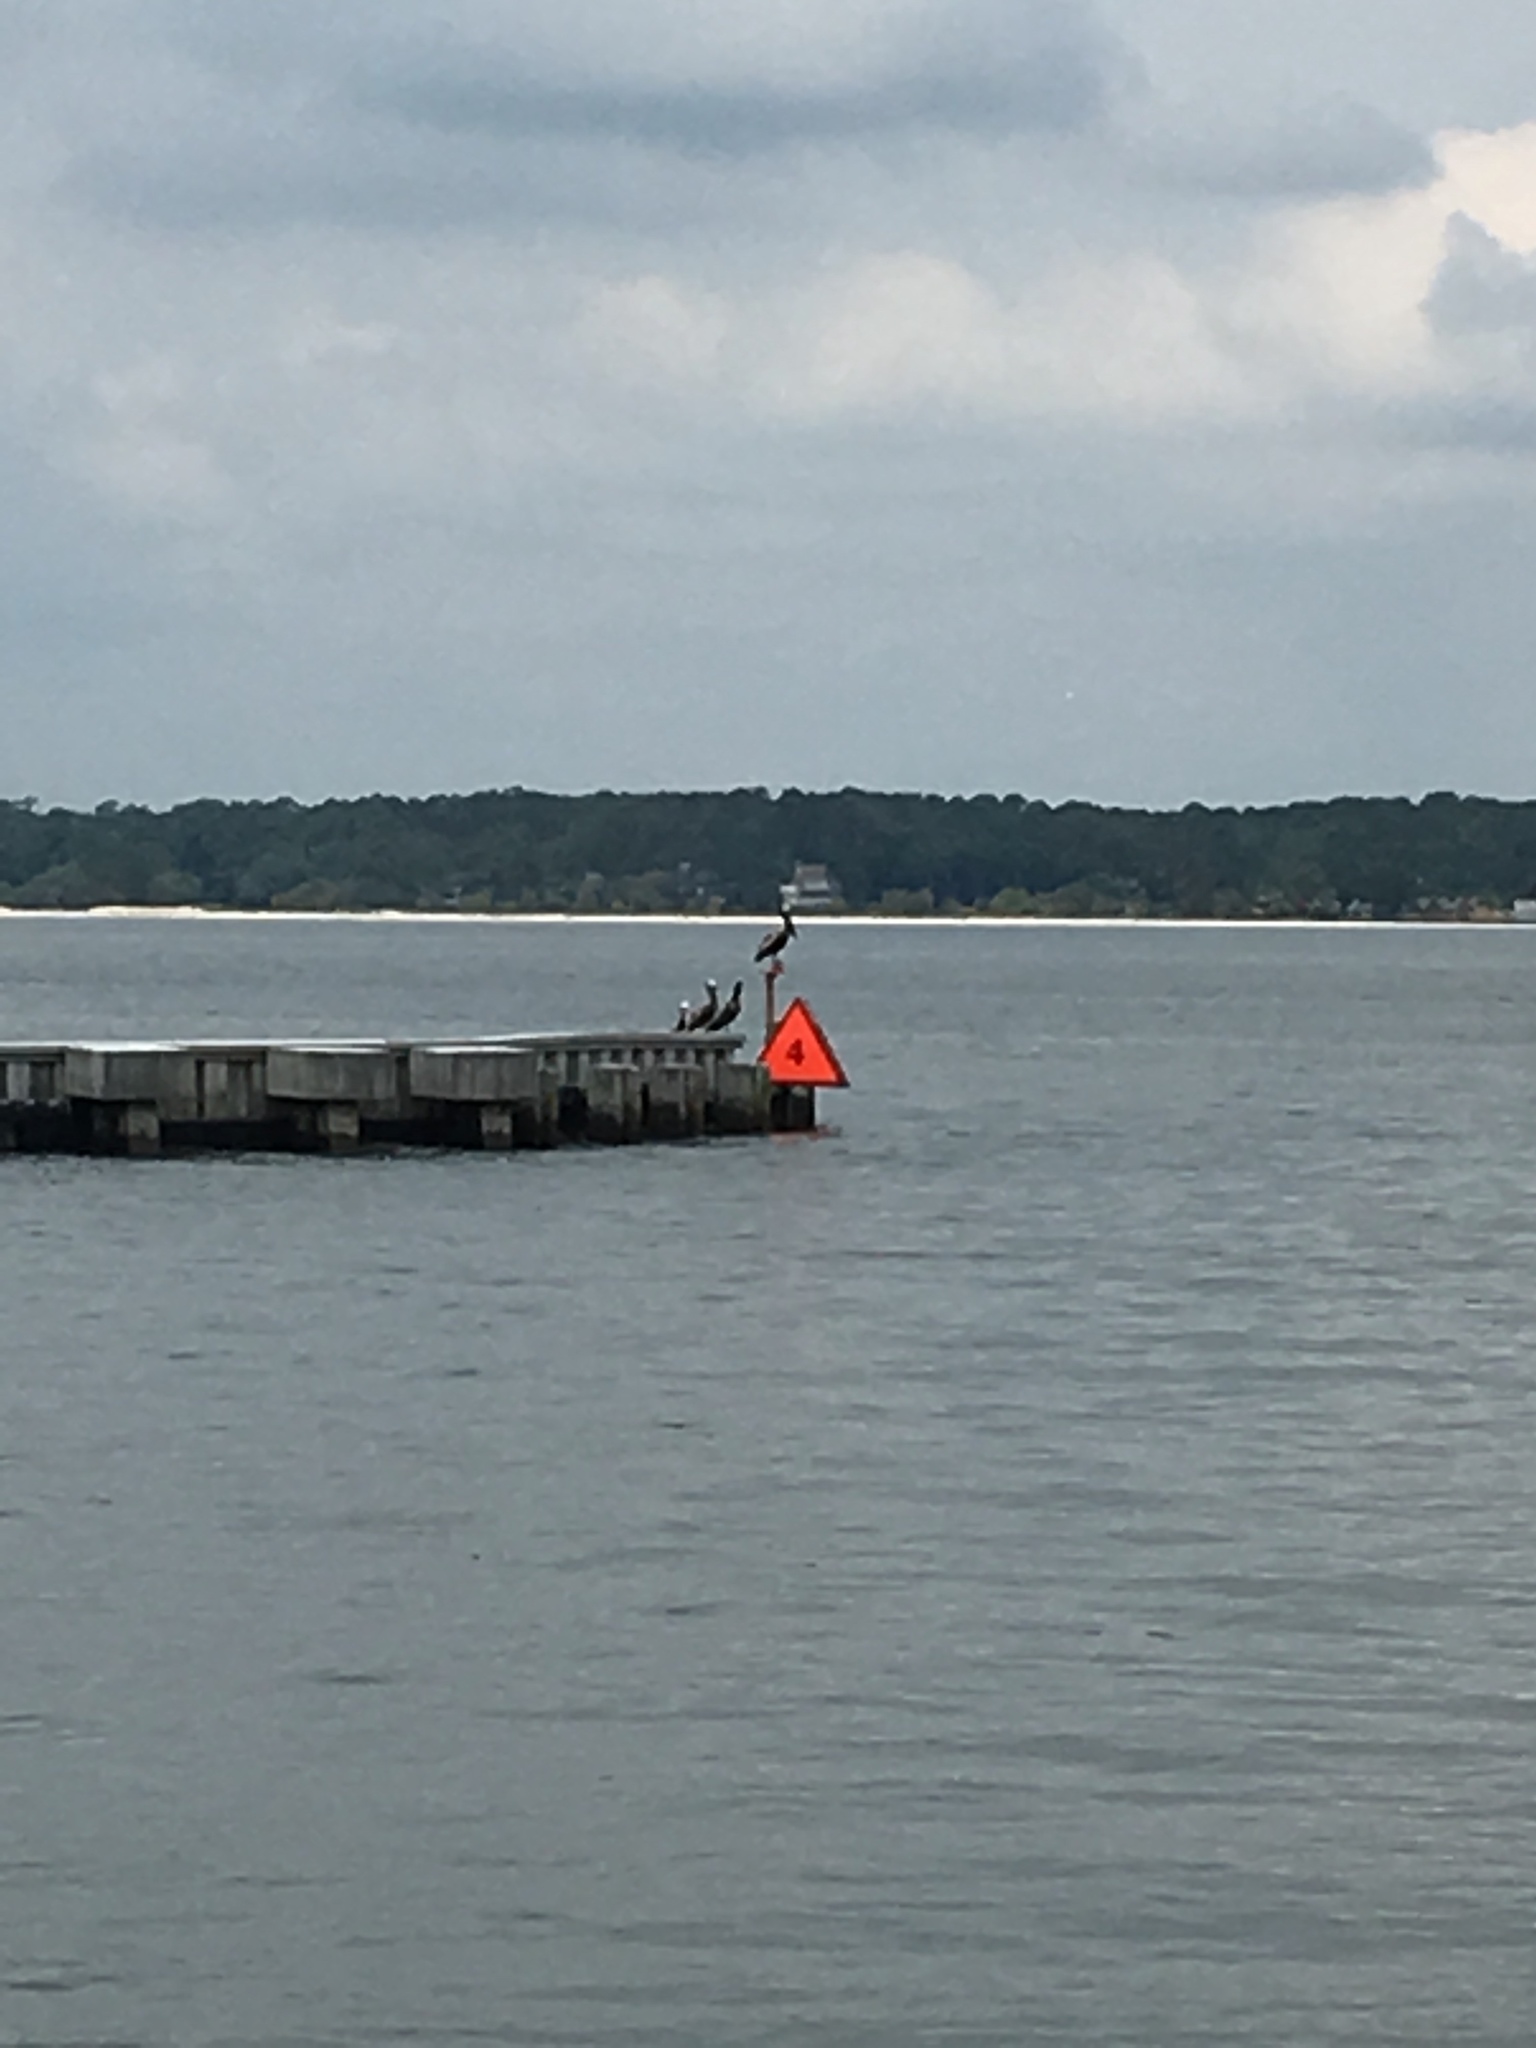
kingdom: Animalia
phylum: Chordata
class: Aves
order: Pelecaniformes
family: Pelecanidae
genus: Pelecanus
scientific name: Pelecanus occidentalis
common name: Brown pelican
